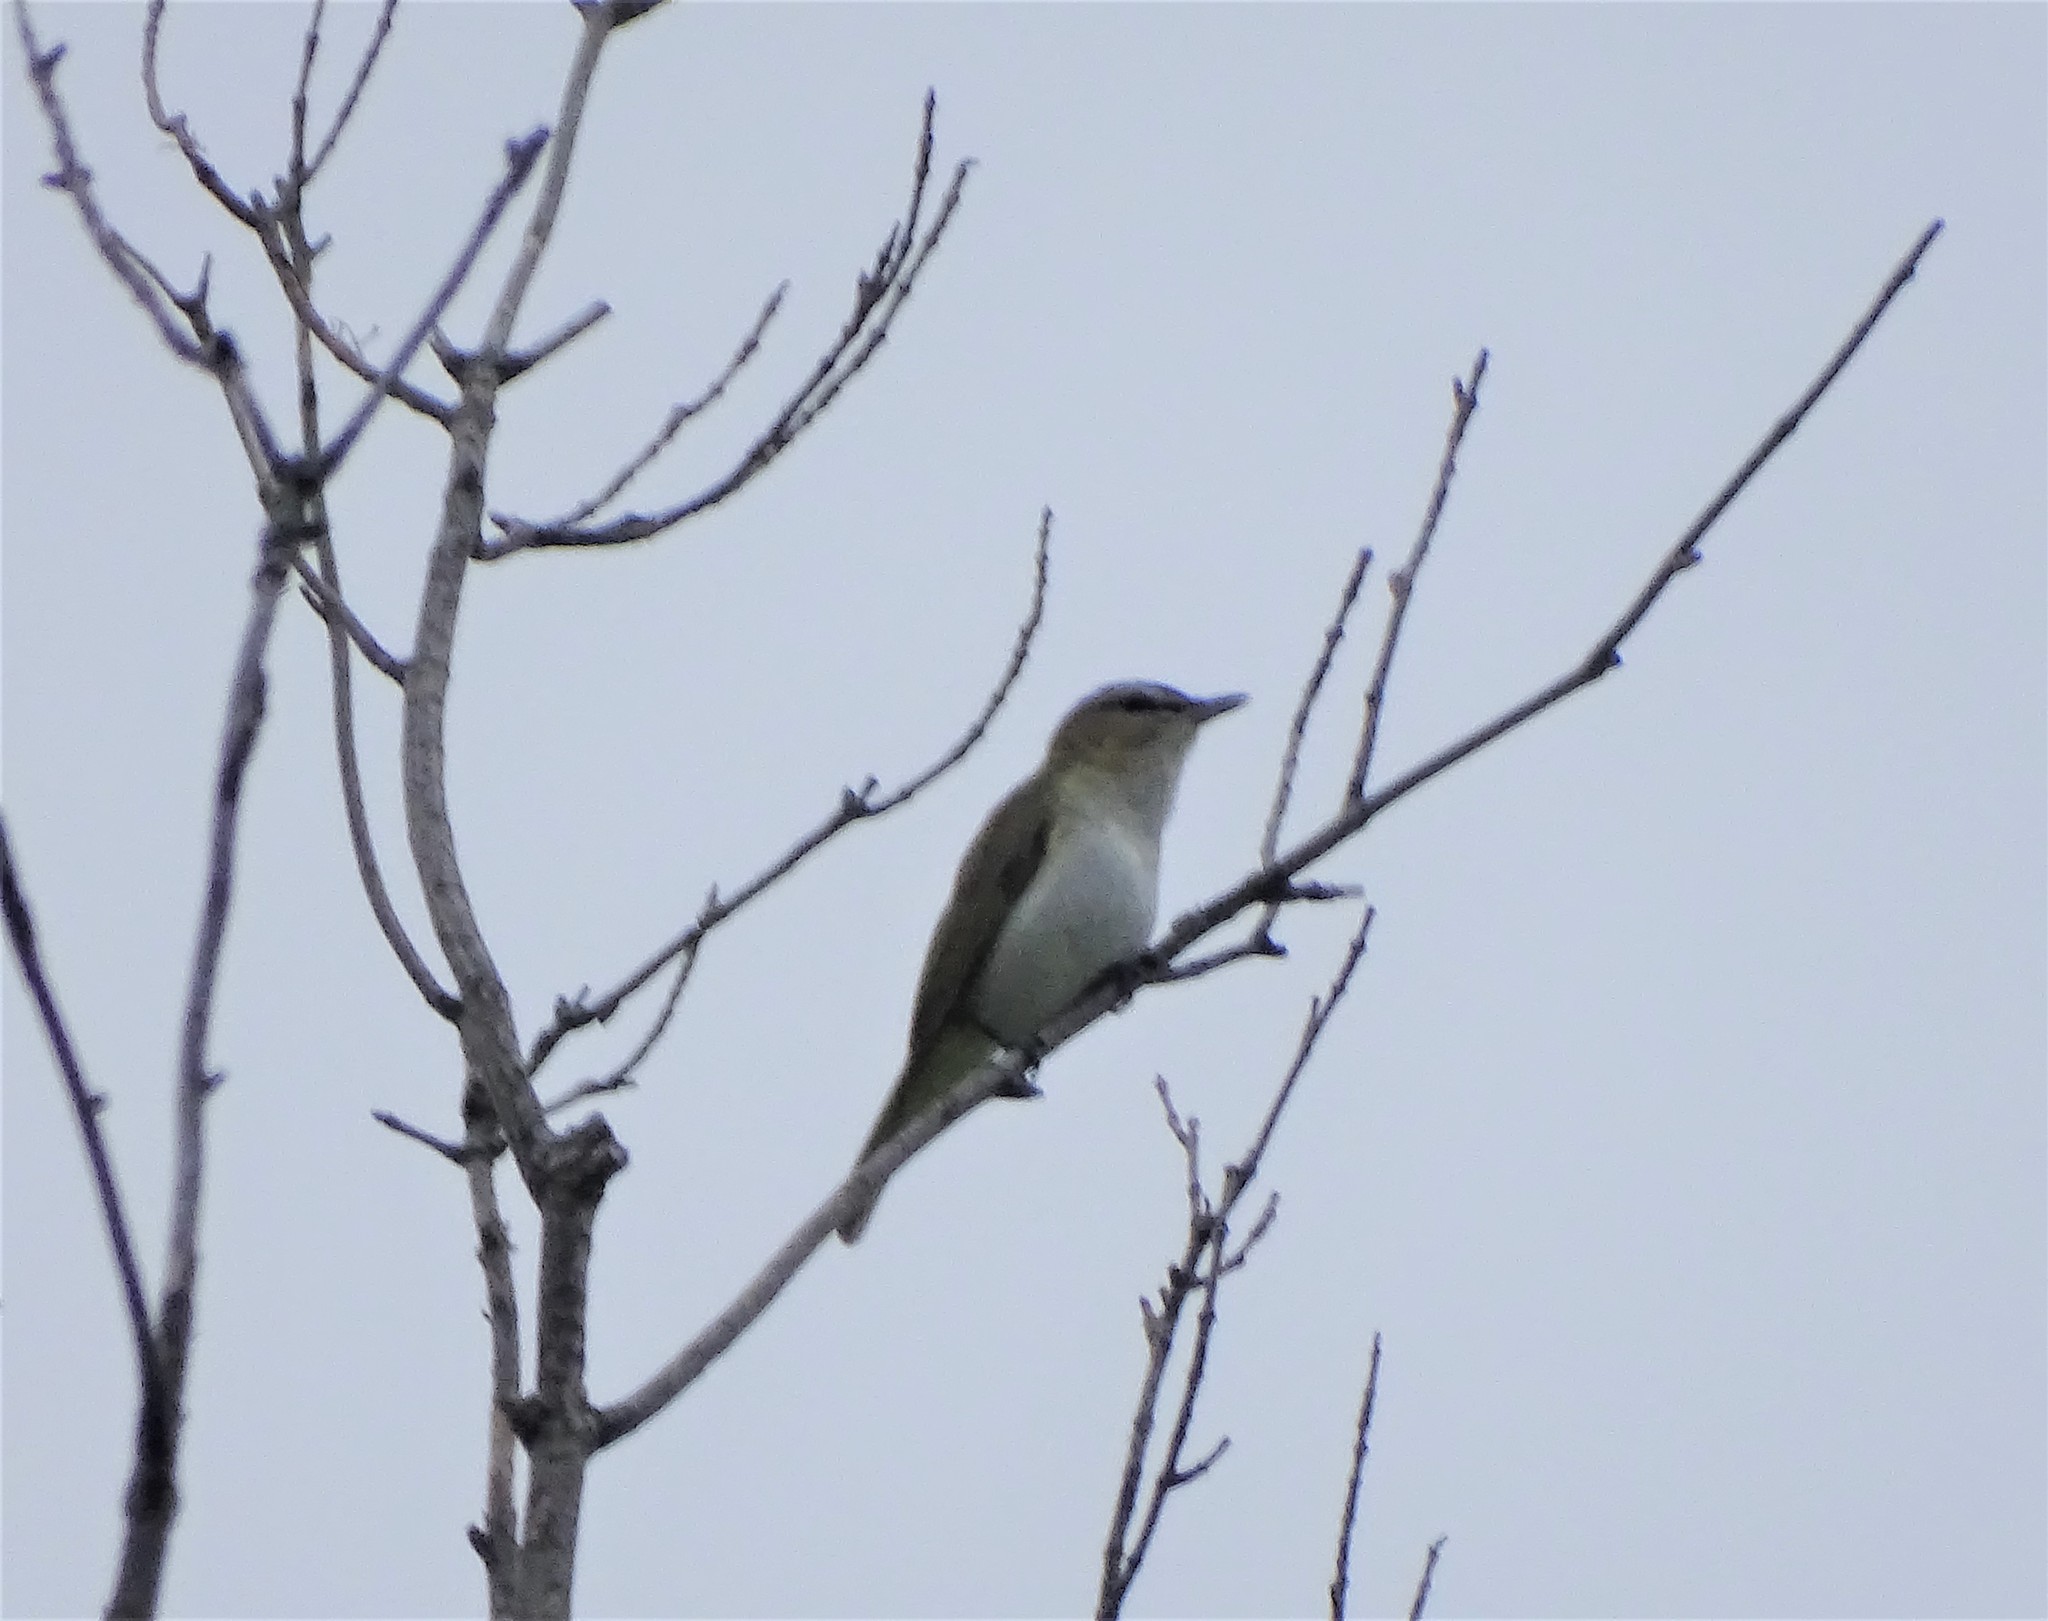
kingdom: Animalia
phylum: Chordata
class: Aves
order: Passeriformes
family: Vireonidae
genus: Vireo
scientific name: Vireo olivaceus
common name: Red-eyed vireo
